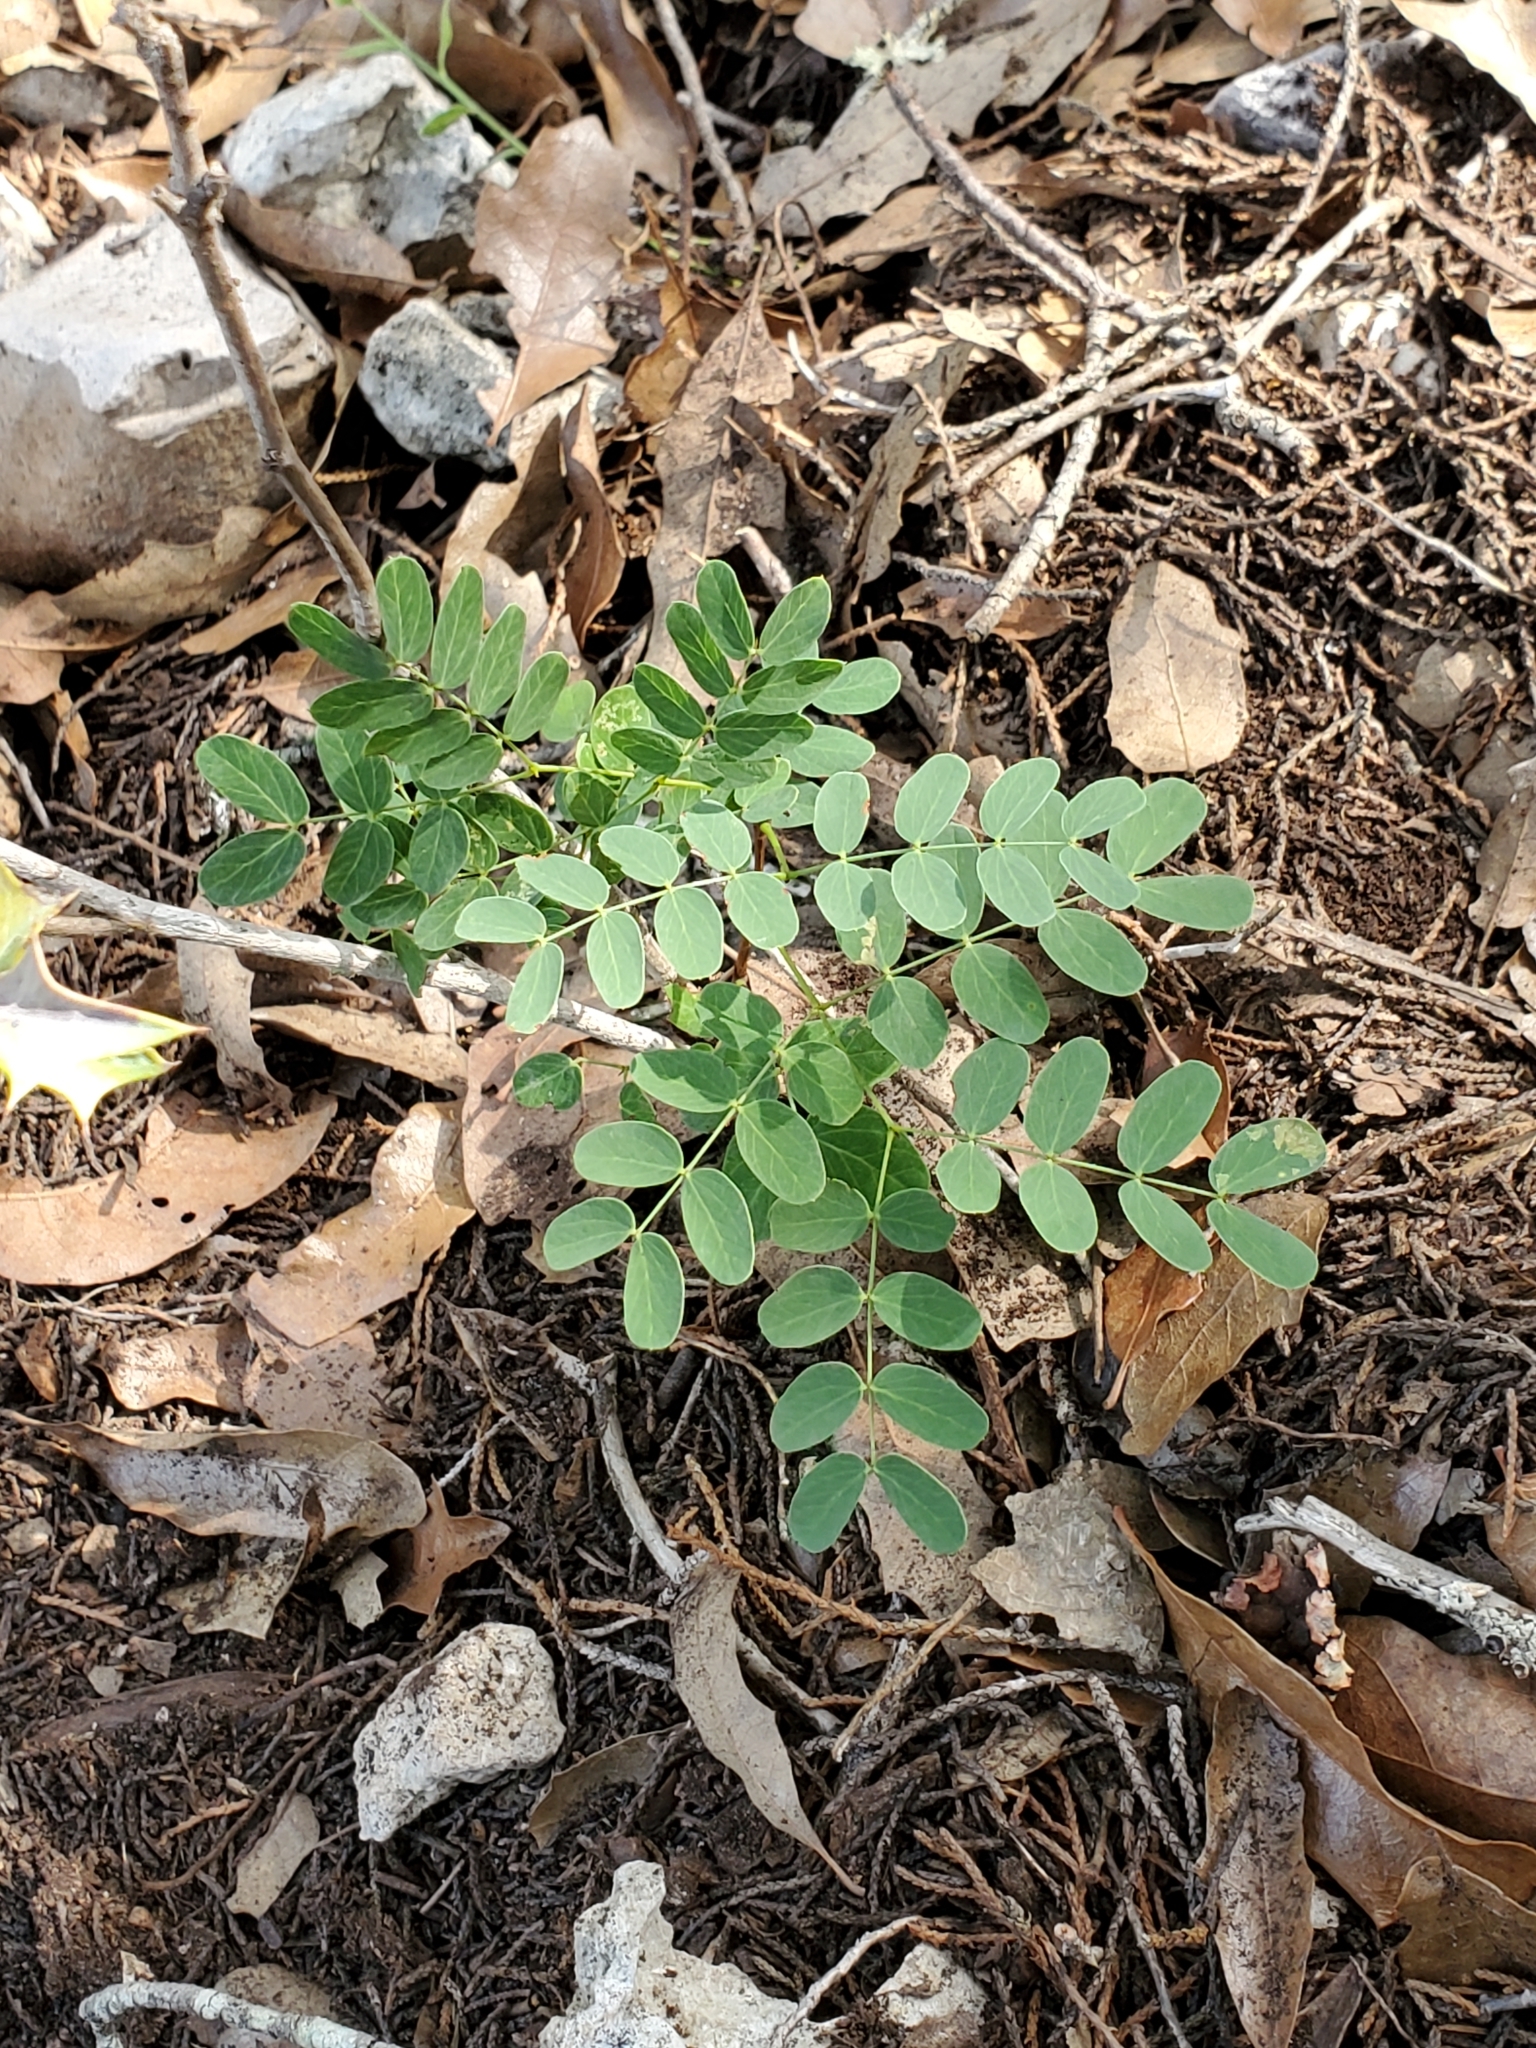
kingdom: Plantae
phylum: Tracheophyta
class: Magnoliopsida
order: Fabales
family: Fabaceae
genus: Leucaena
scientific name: Leucaena retusa
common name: Littleleaf leadtree
